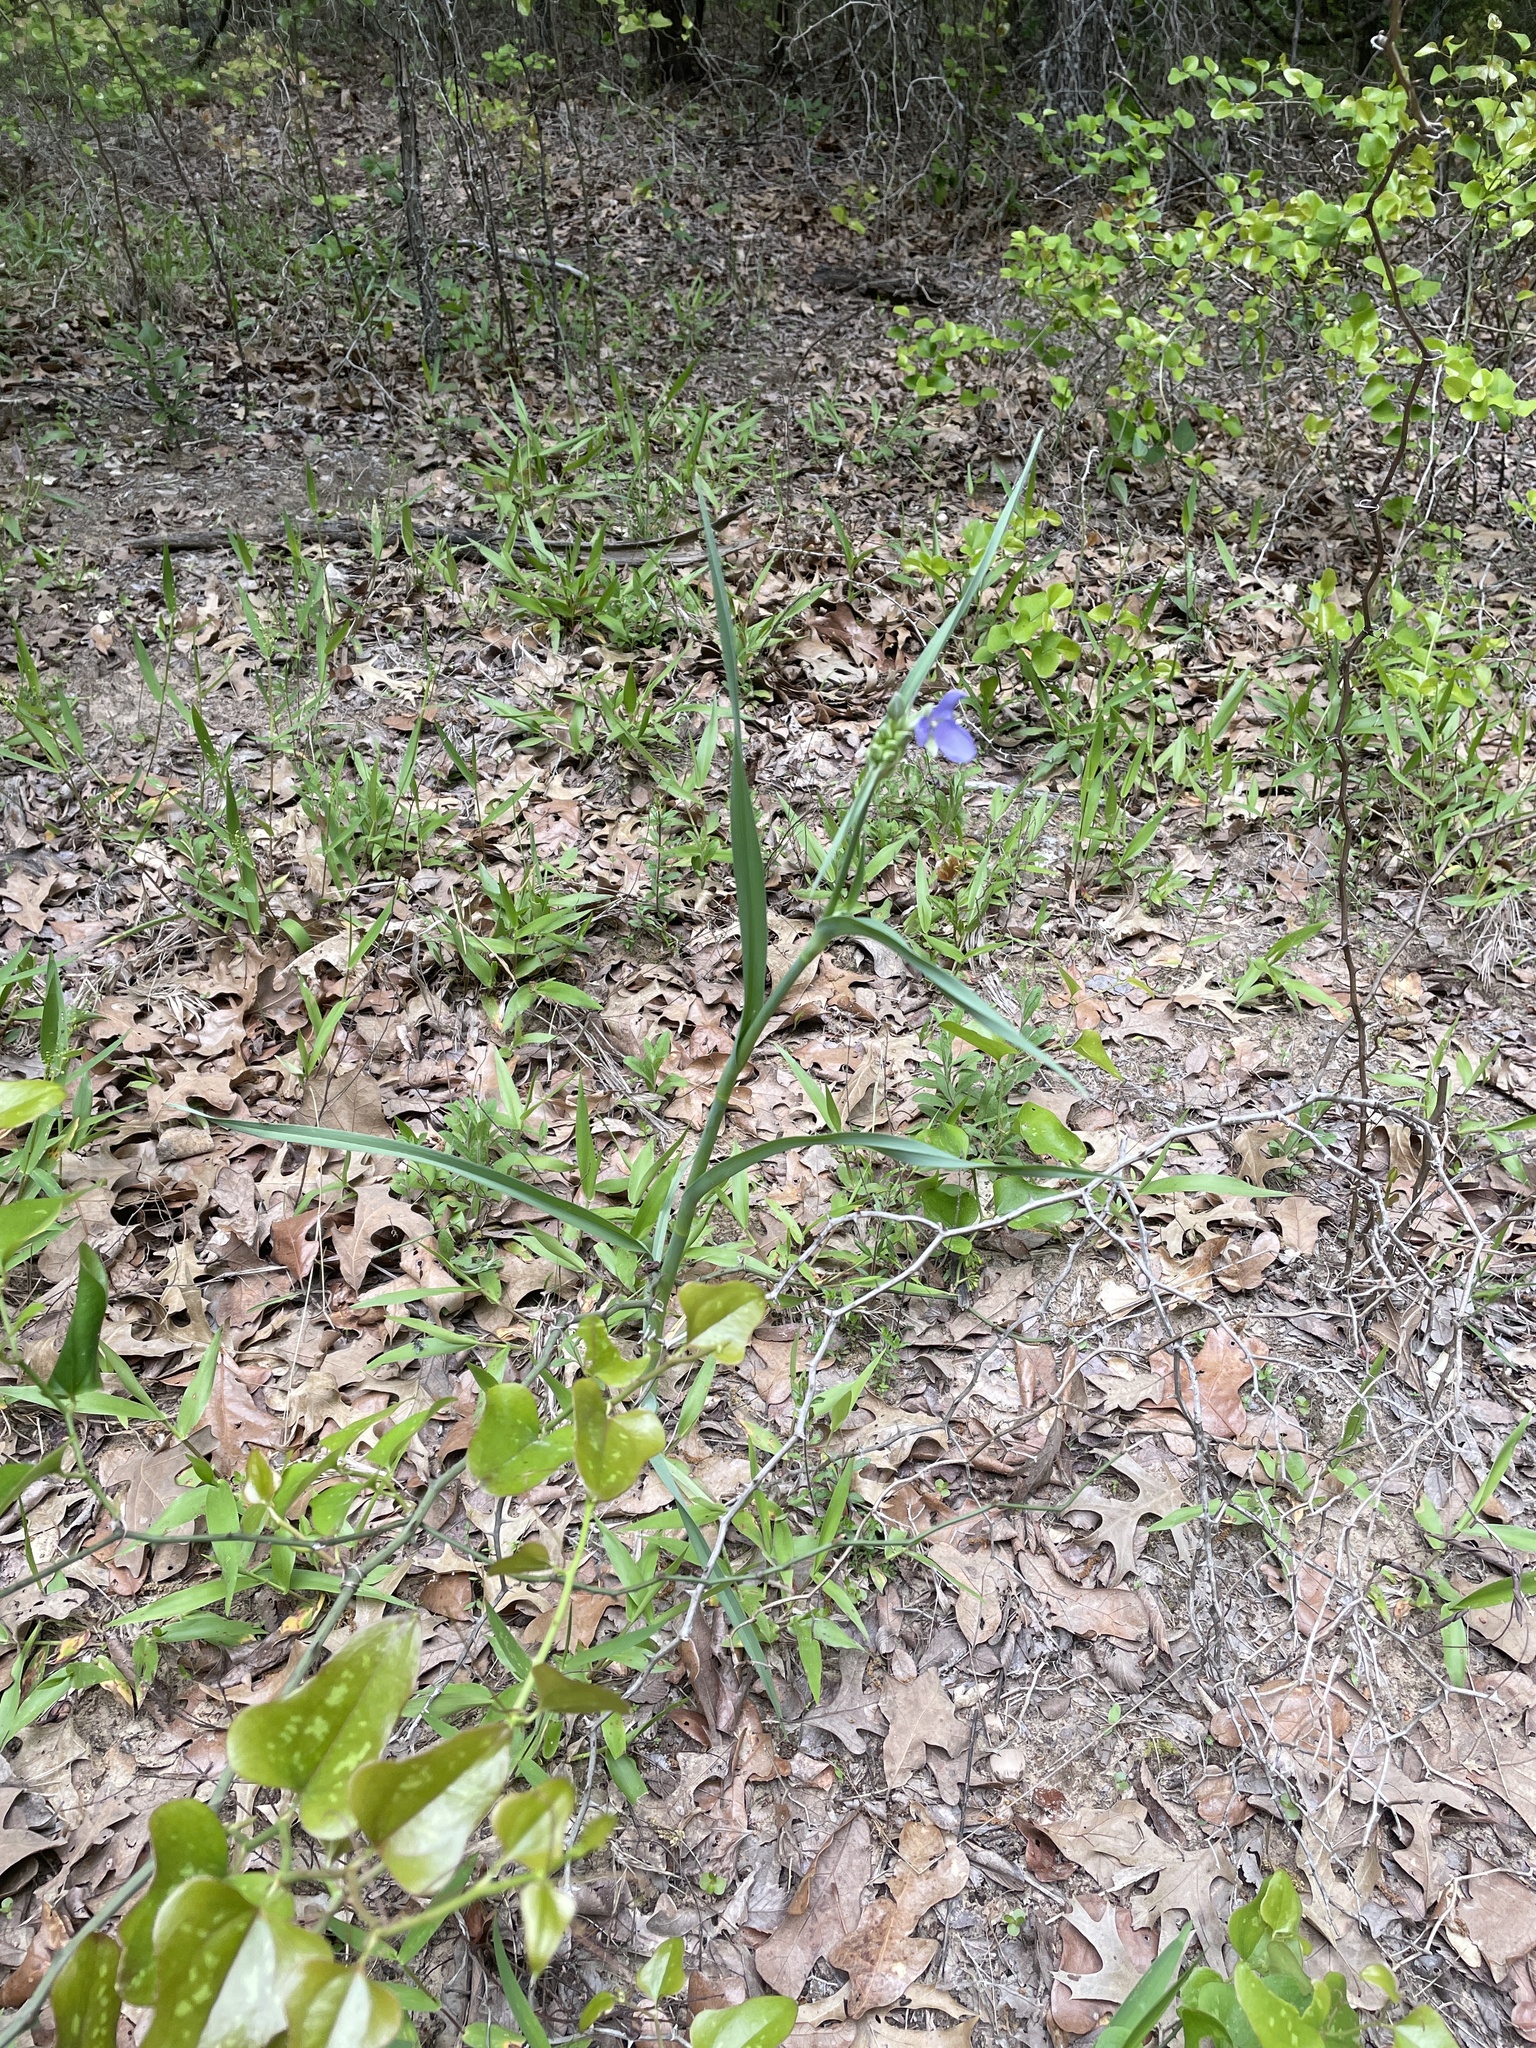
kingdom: Plantae
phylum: Tracheophyta
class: Liliopsida
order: Commelinales
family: Commelinaceae
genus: Tradescantia
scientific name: Tradescantia ohiensis
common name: Ohio spiderwort
